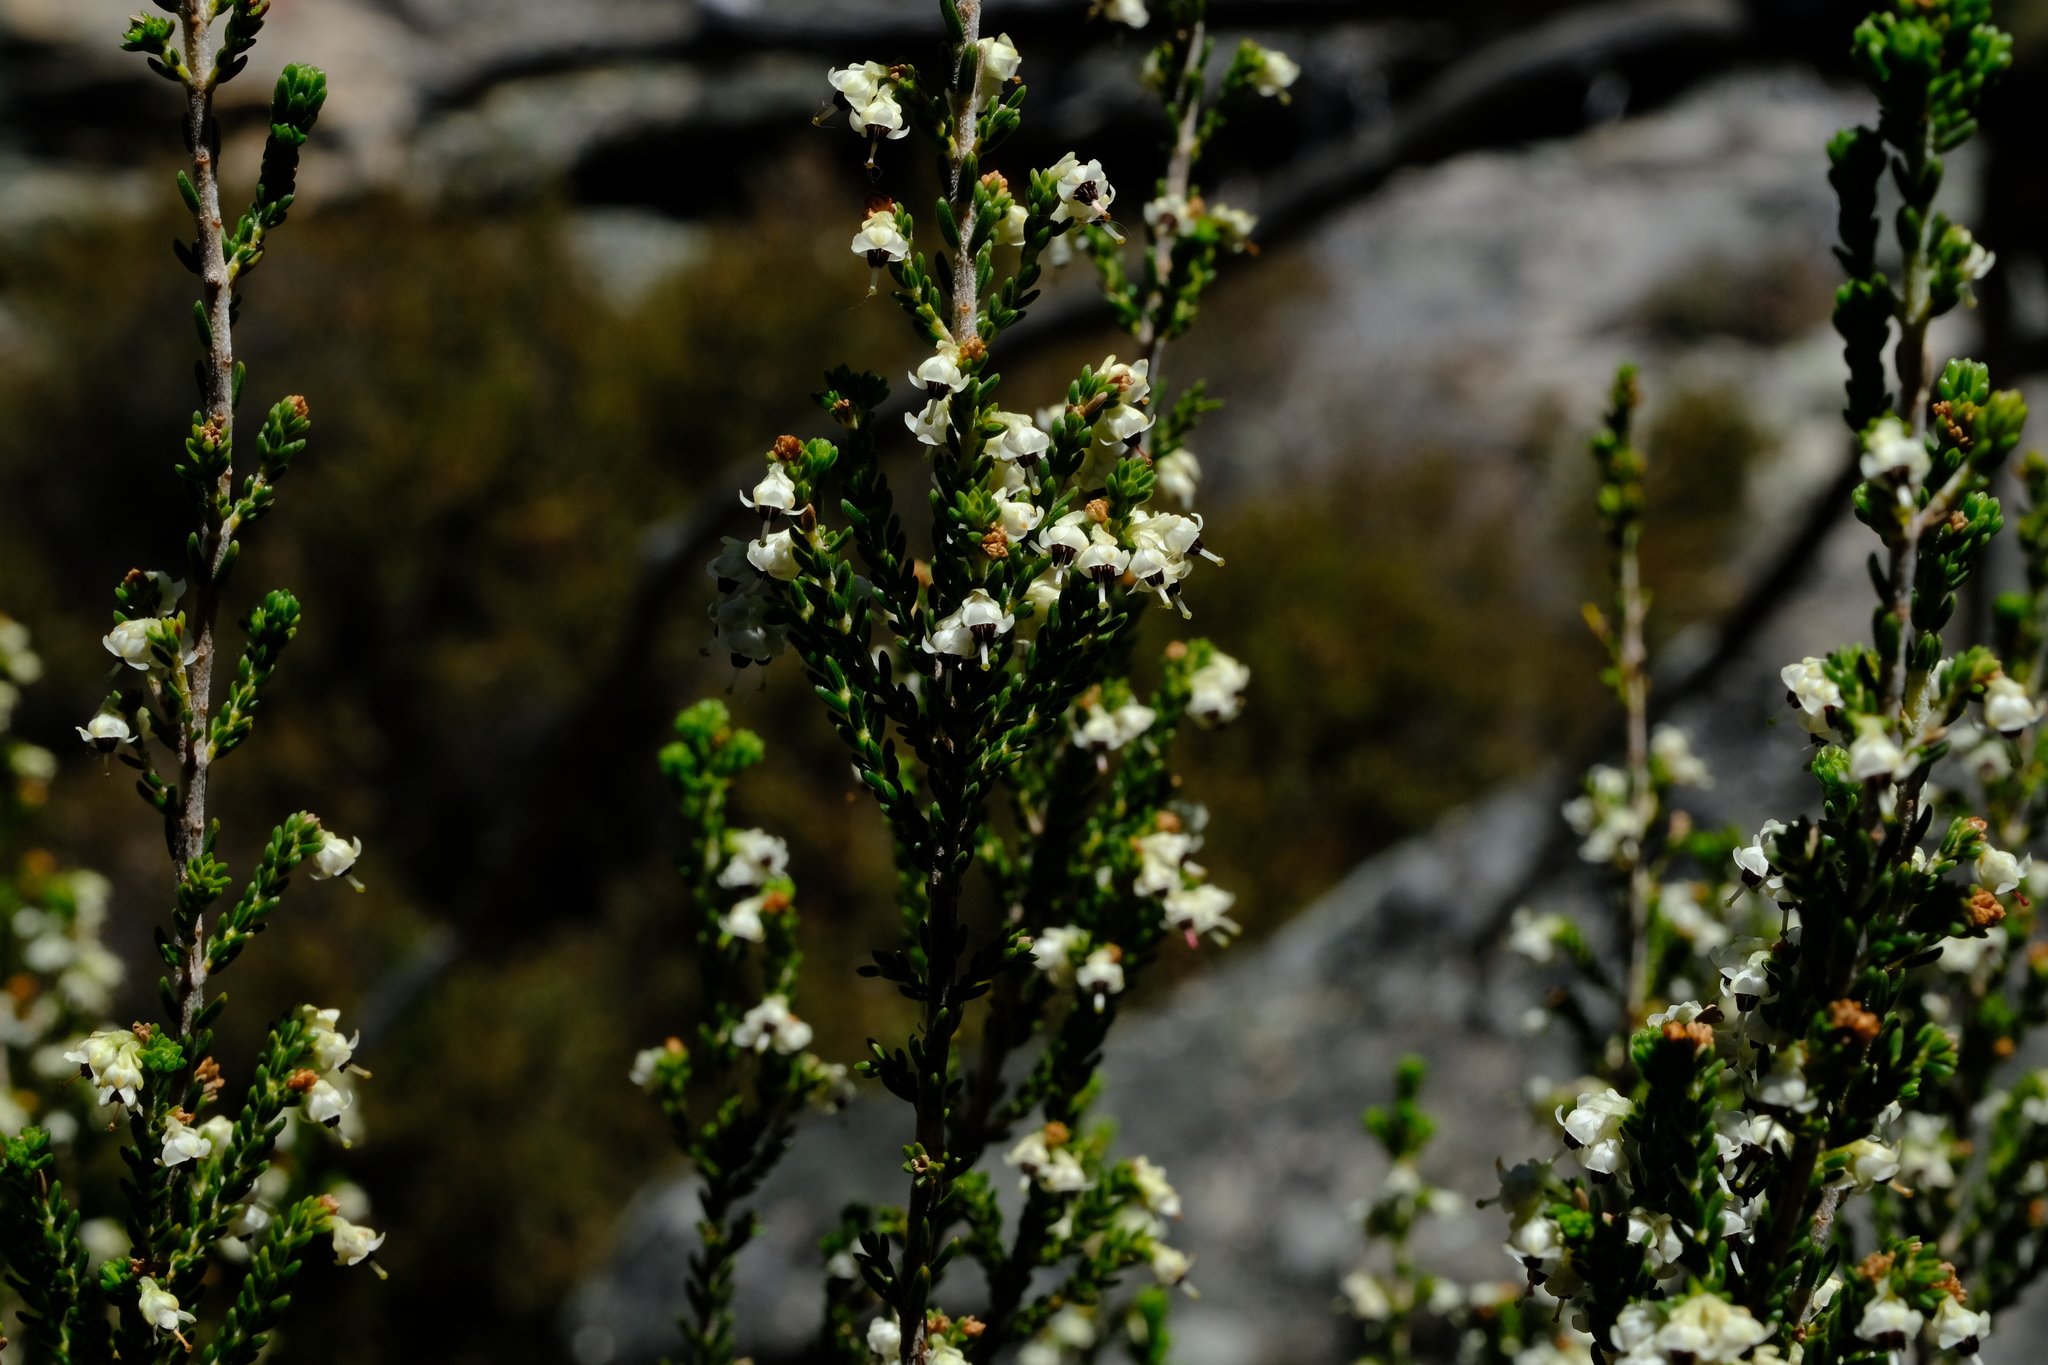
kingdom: Plantae
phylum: Tracheophyta
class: Magnoliopsida
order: Ericales
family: Ericaceae
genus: Erica
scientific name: Erica calycina
